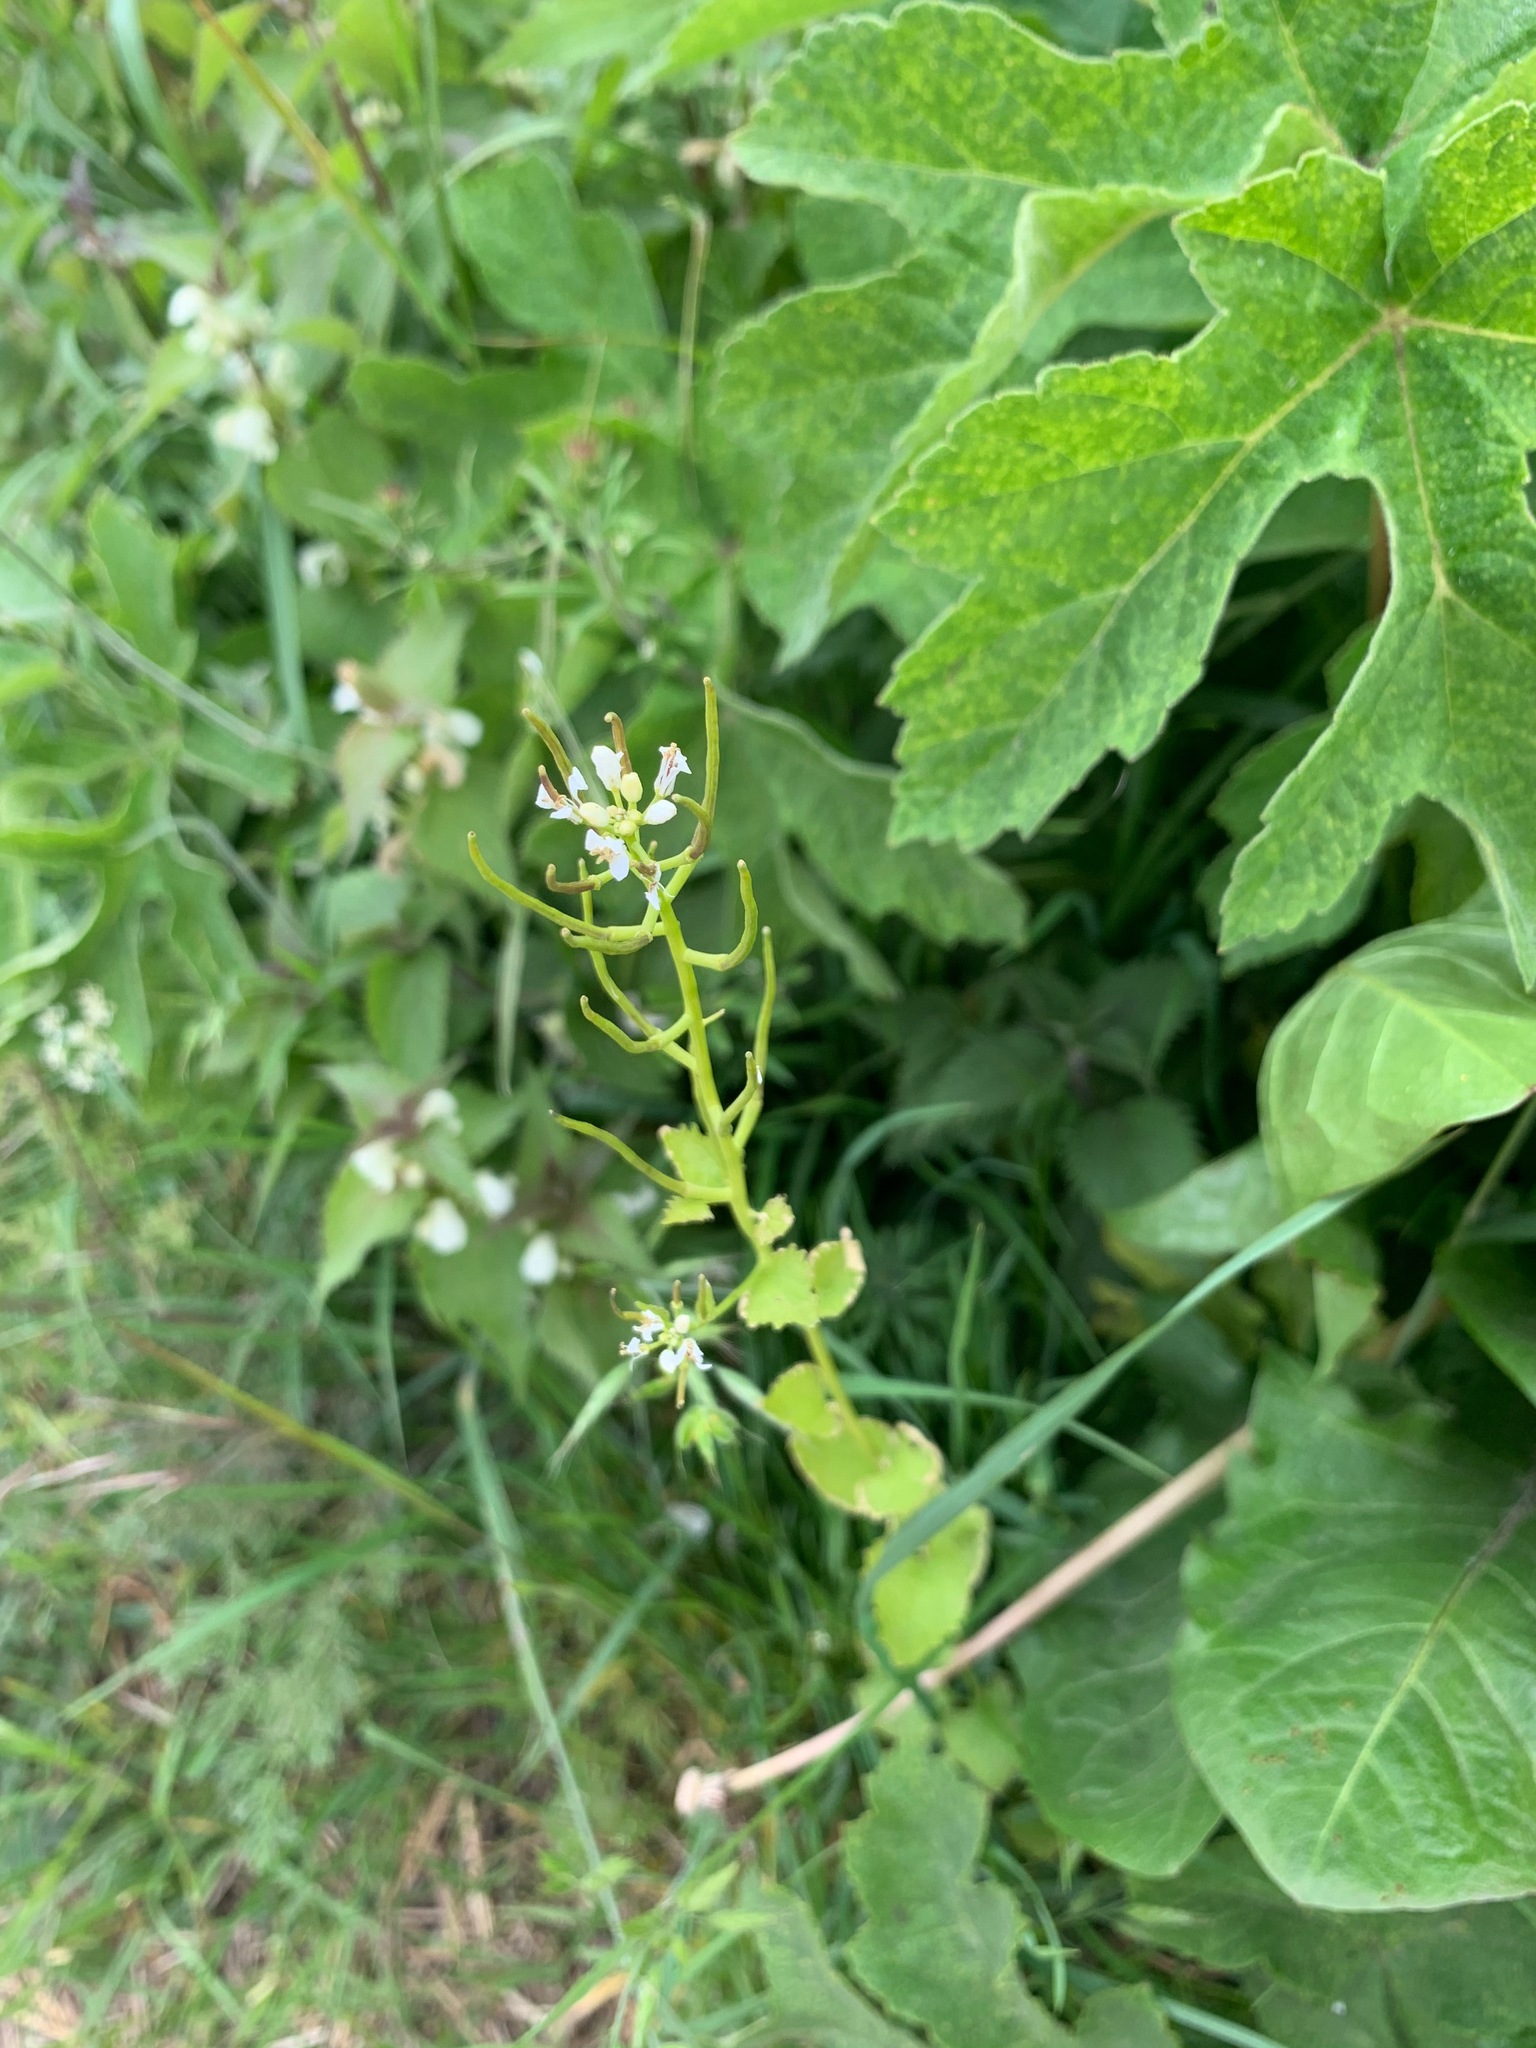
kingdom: Plantae
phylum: Tracheophyta
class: Magnoliopsida
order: Brassicales
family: Brassicaceae
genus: Alliaria
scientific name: Alliaria petiolata
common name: Garlic mustard
